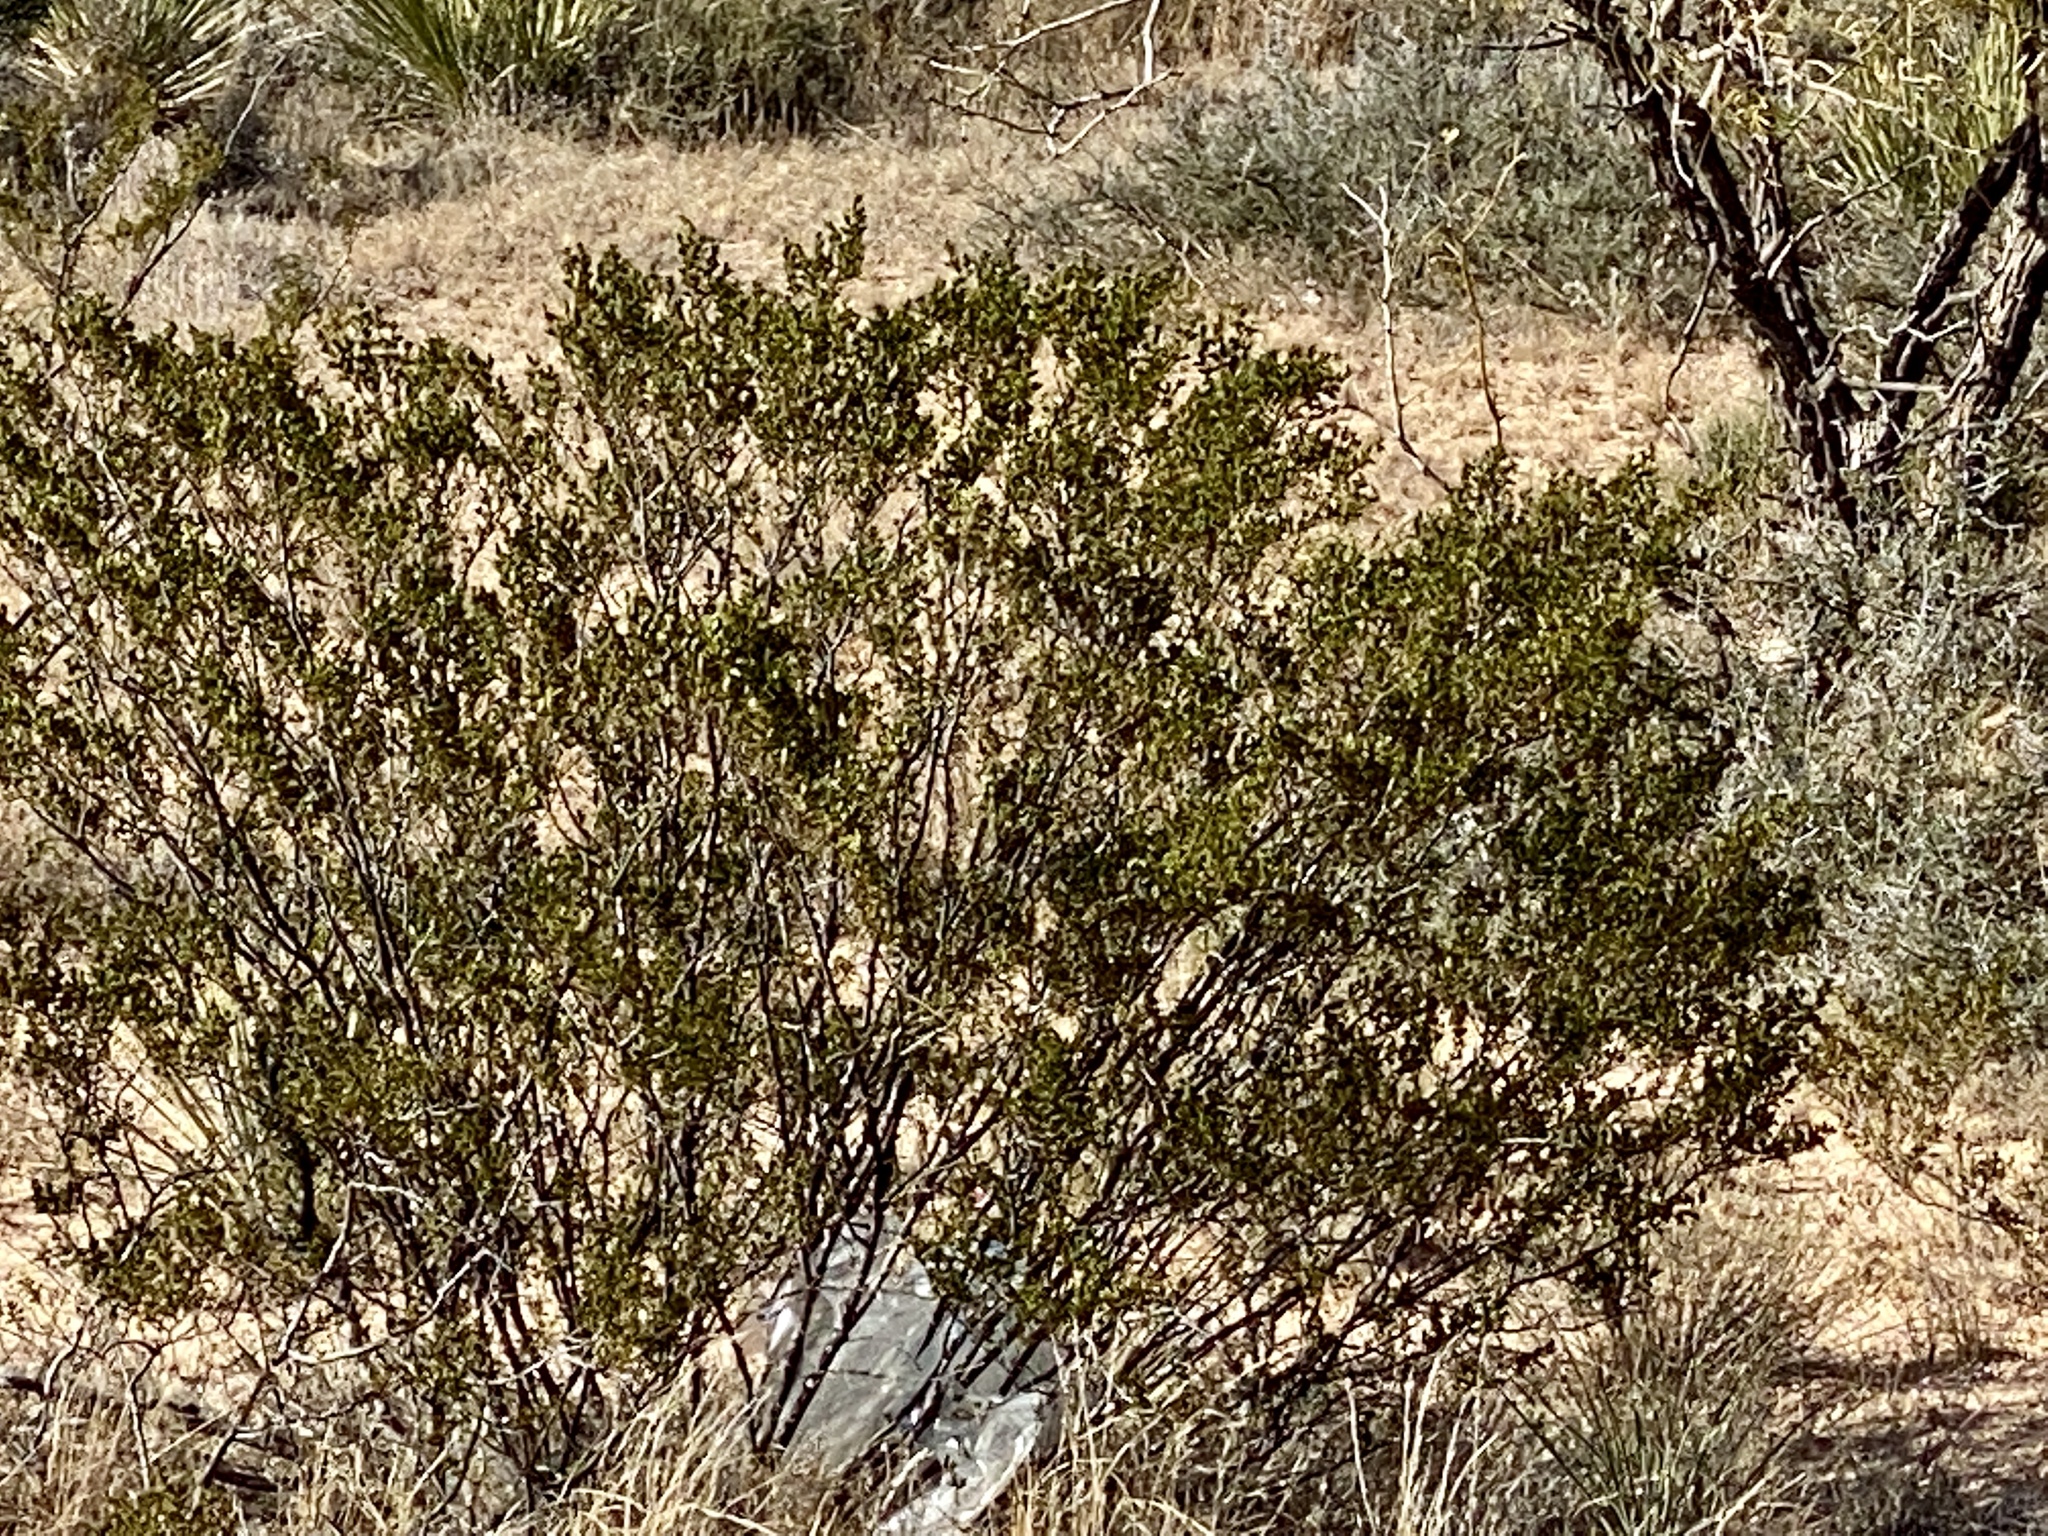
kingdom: Plantae
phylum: Tracheophyta
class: Magnoliopsida
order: Zygophyllales
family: Zygophyllaceae
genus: Larrea
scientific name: Larrea tridentata
